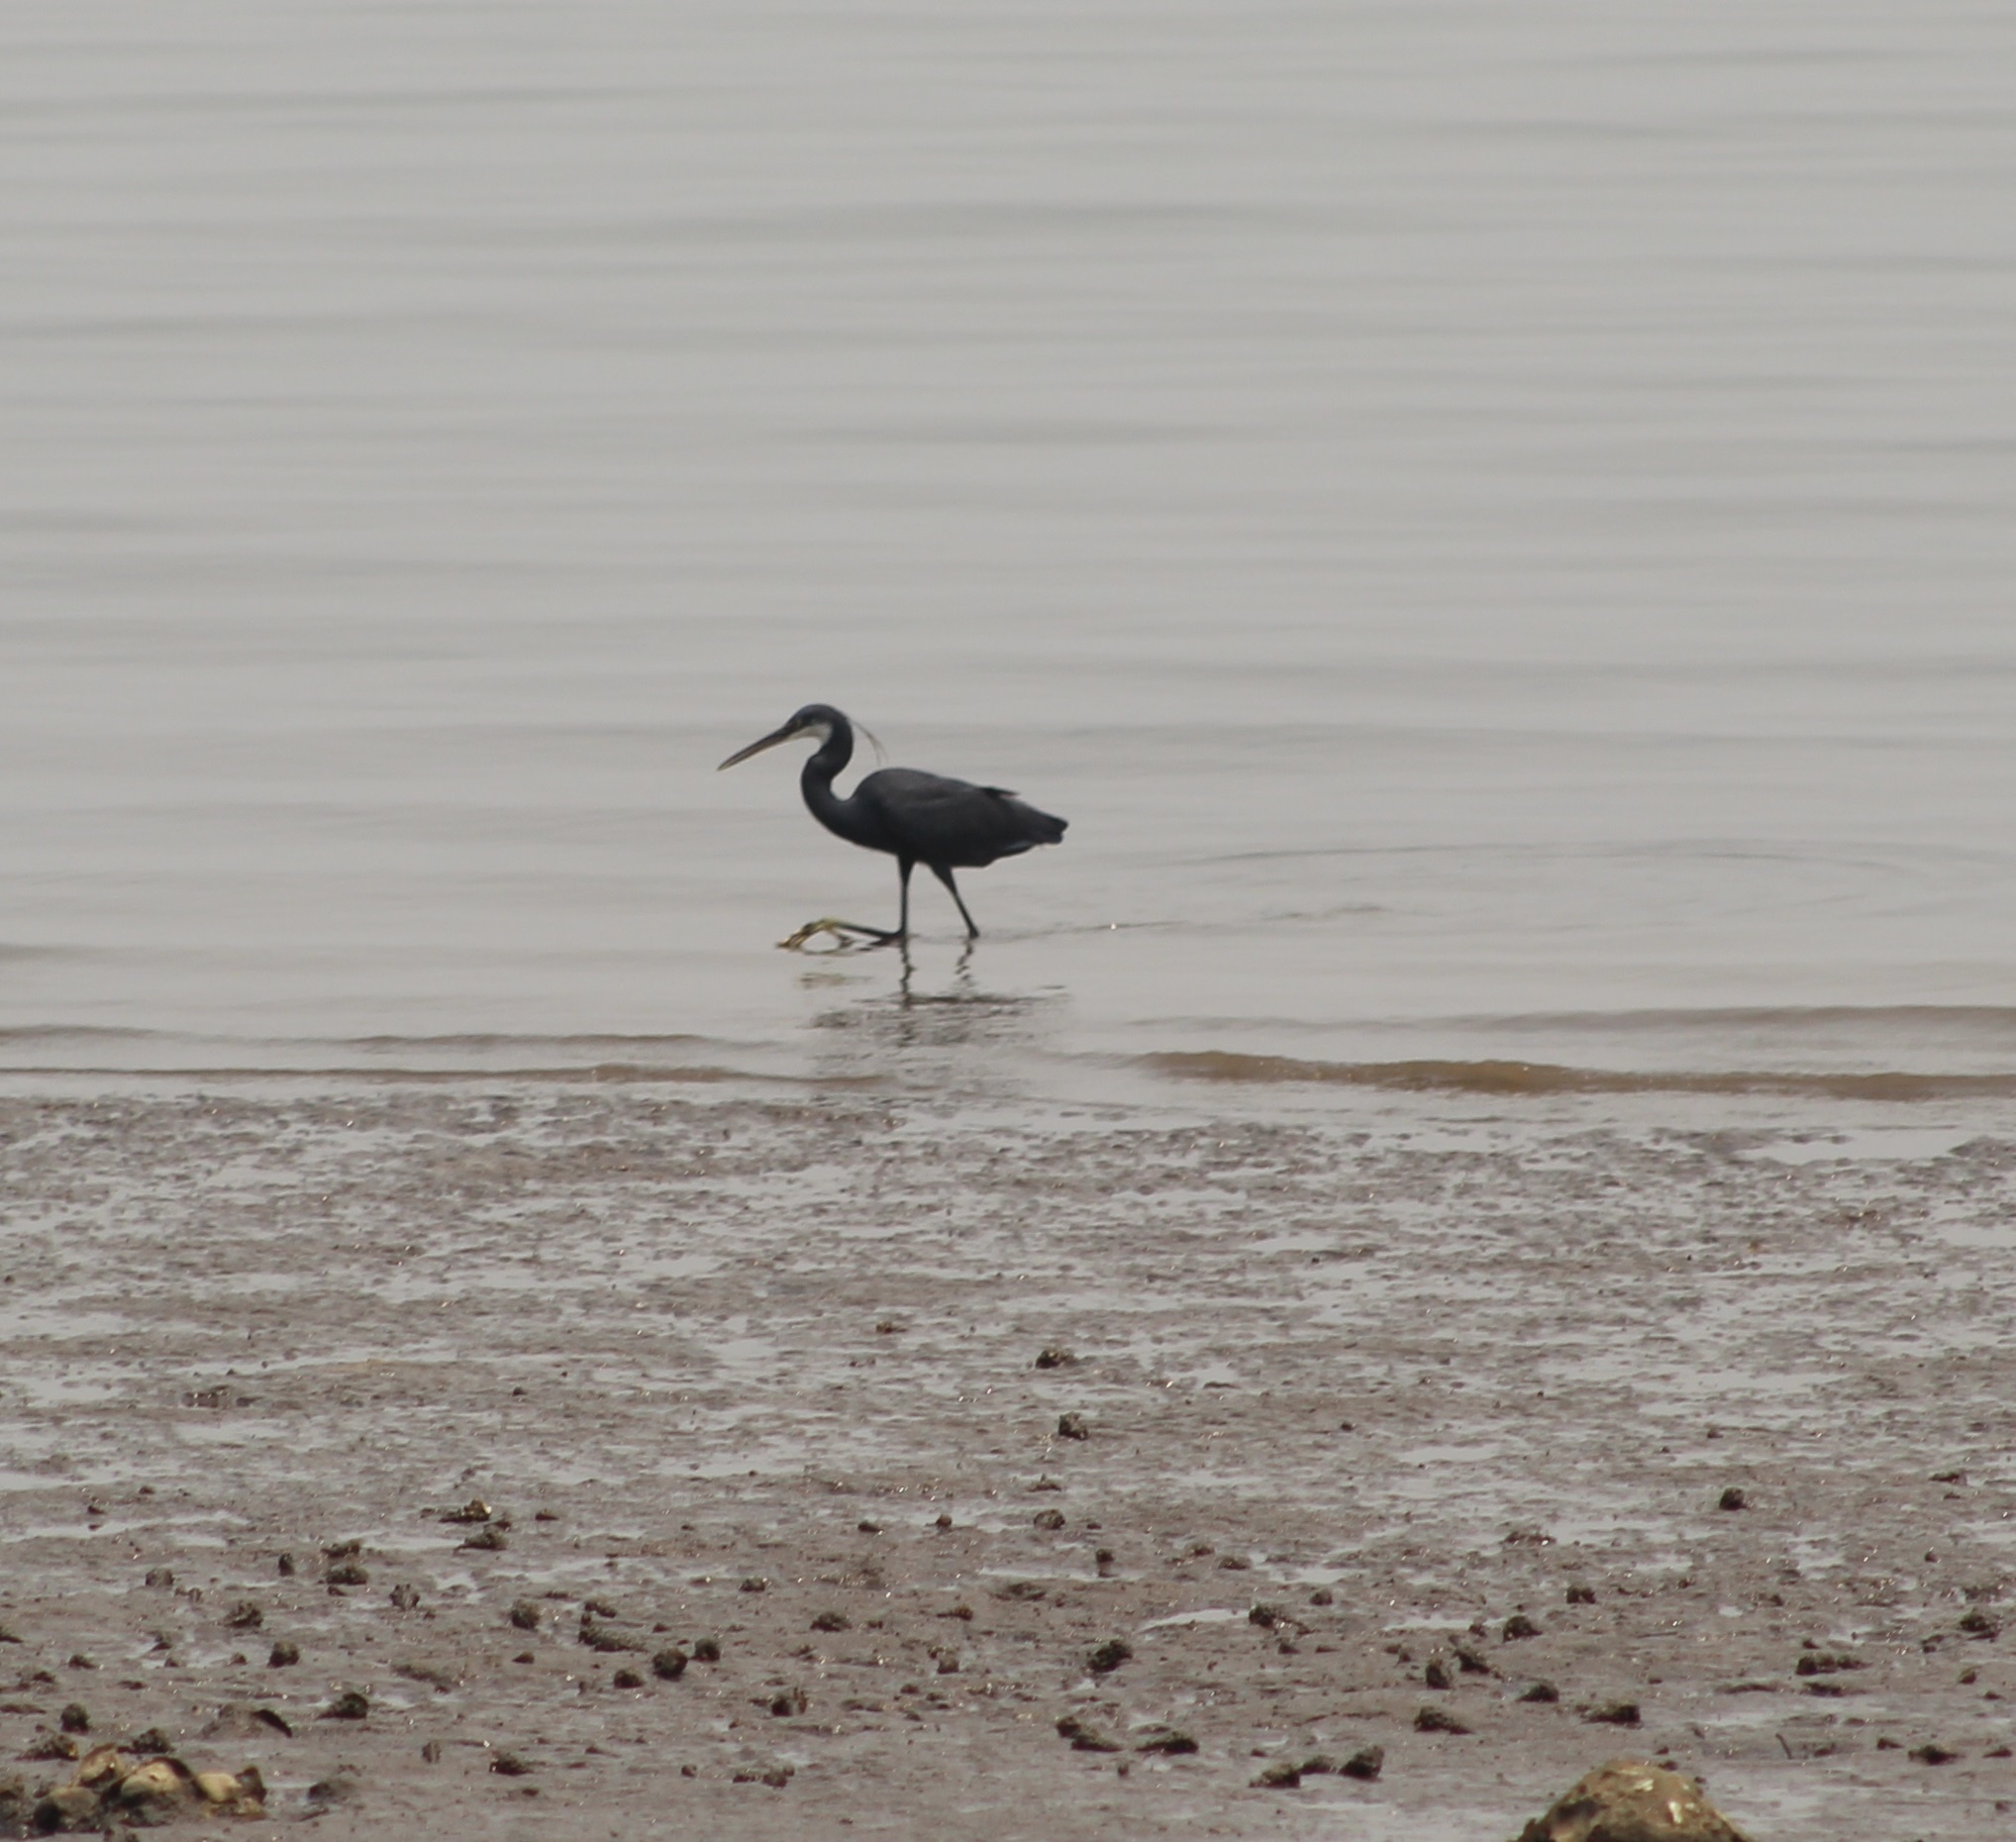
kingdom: Animalia
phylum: Chordata
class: Aves
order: Pelecaniformes
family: Ardeidae
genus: Egretta
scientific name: Egretta gularis
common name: Western reef-heron
